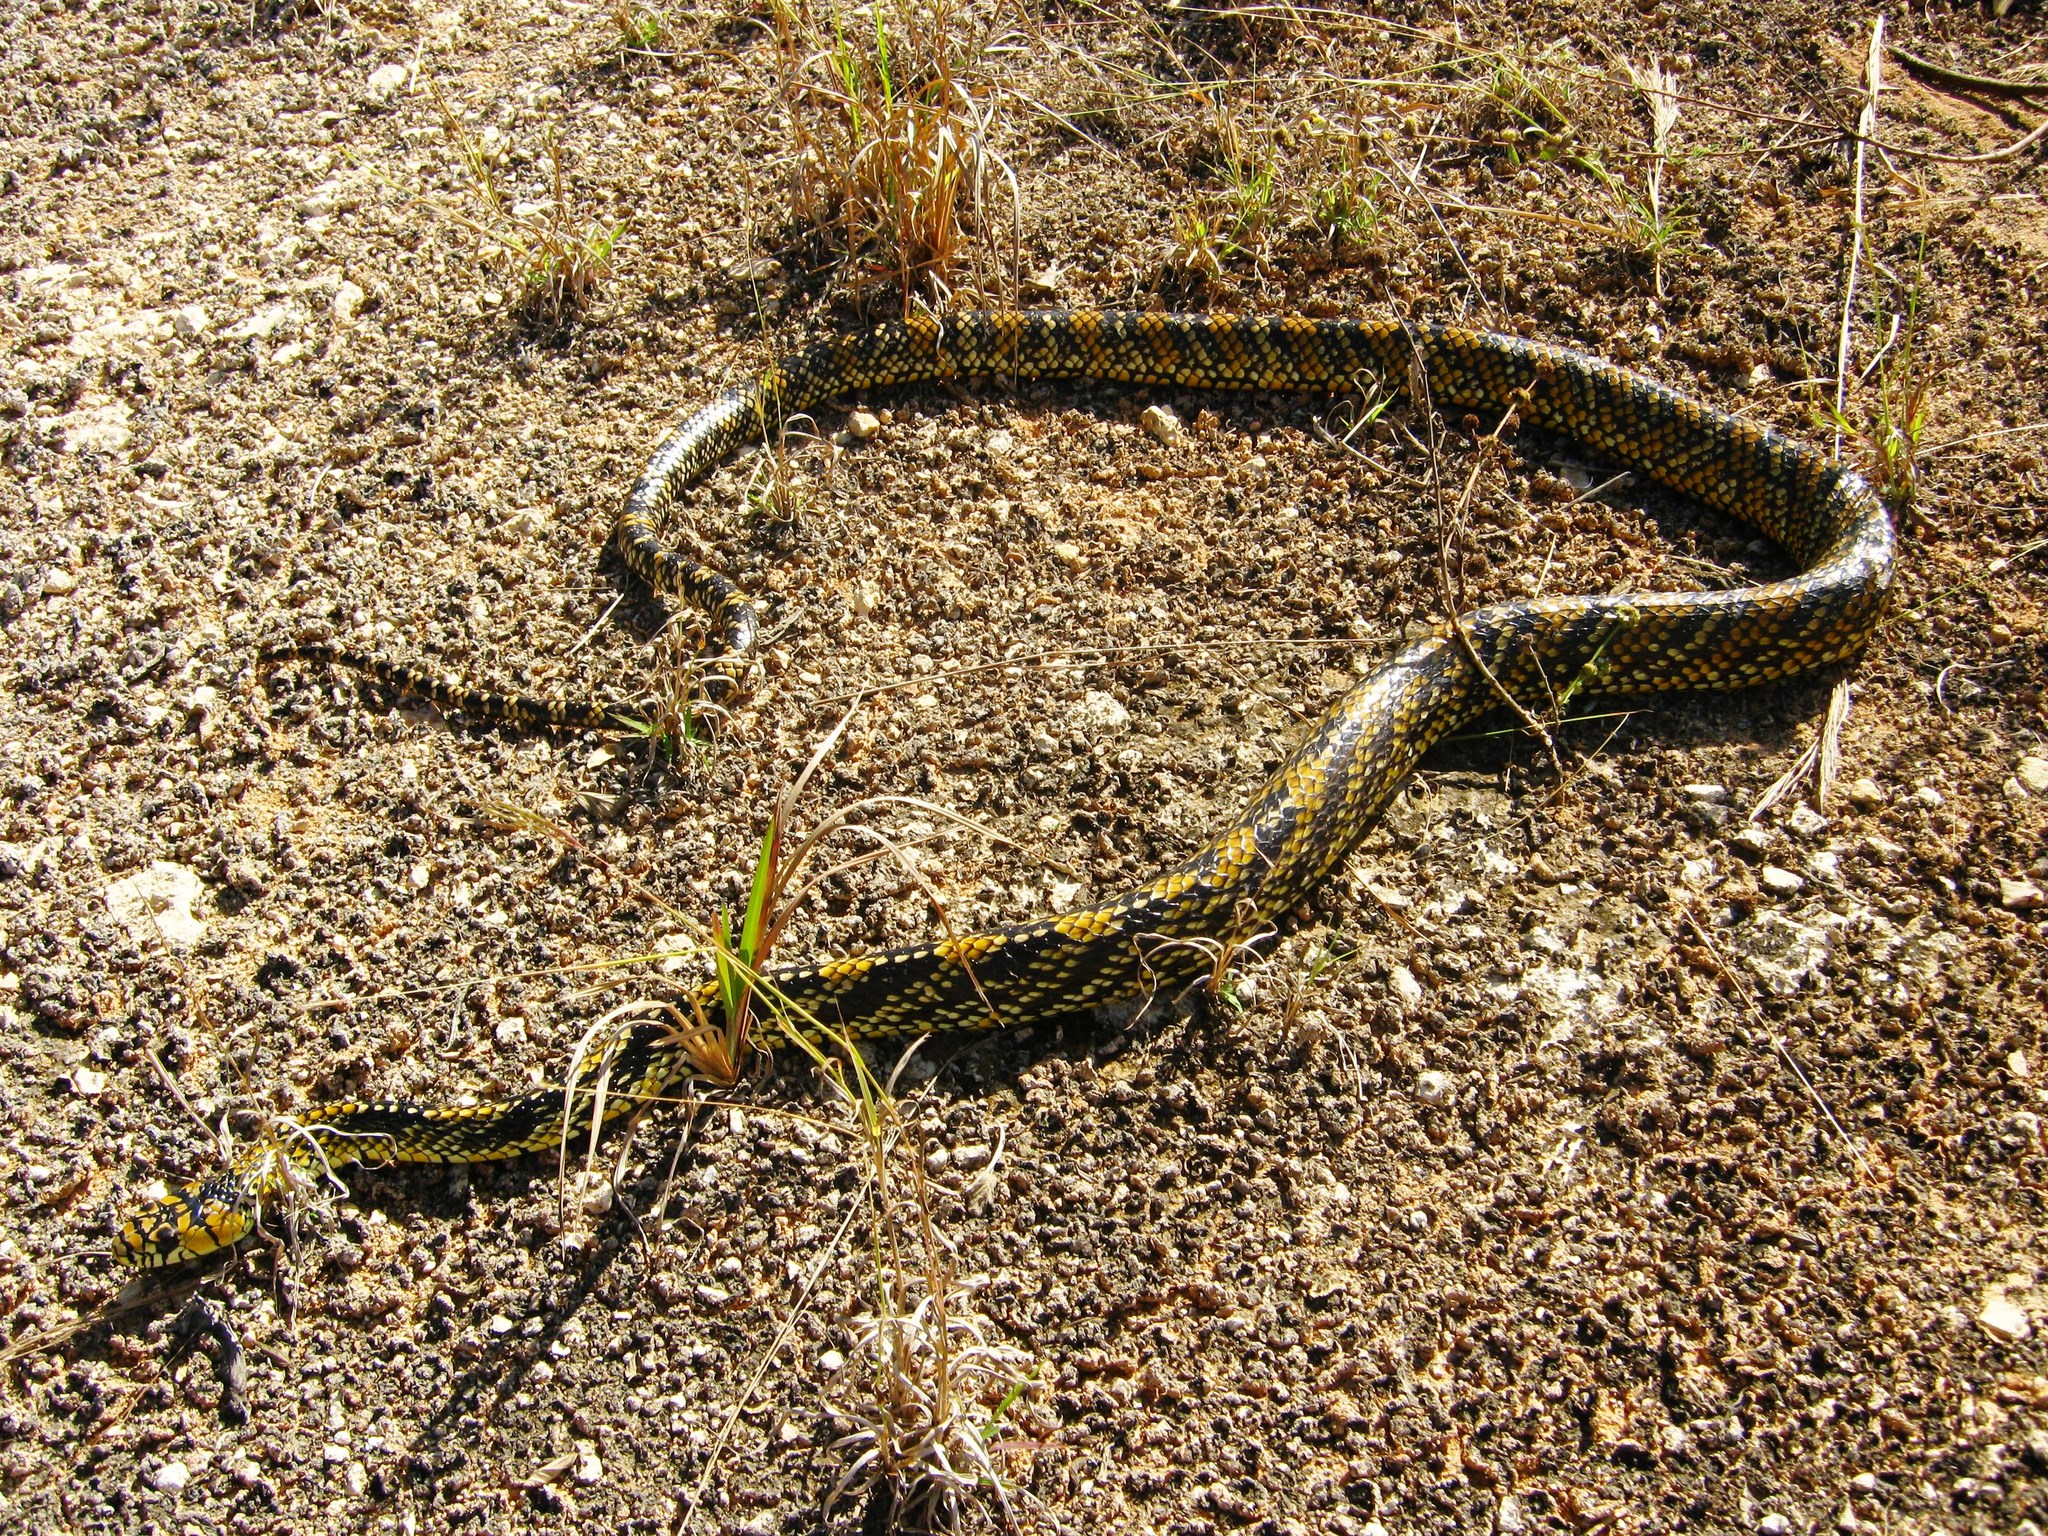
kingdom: Animalia
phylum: Chordata
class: Squamata
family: Colubridae
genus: Spilotes
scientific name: Spilotes pullatus
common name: Chicken snake
